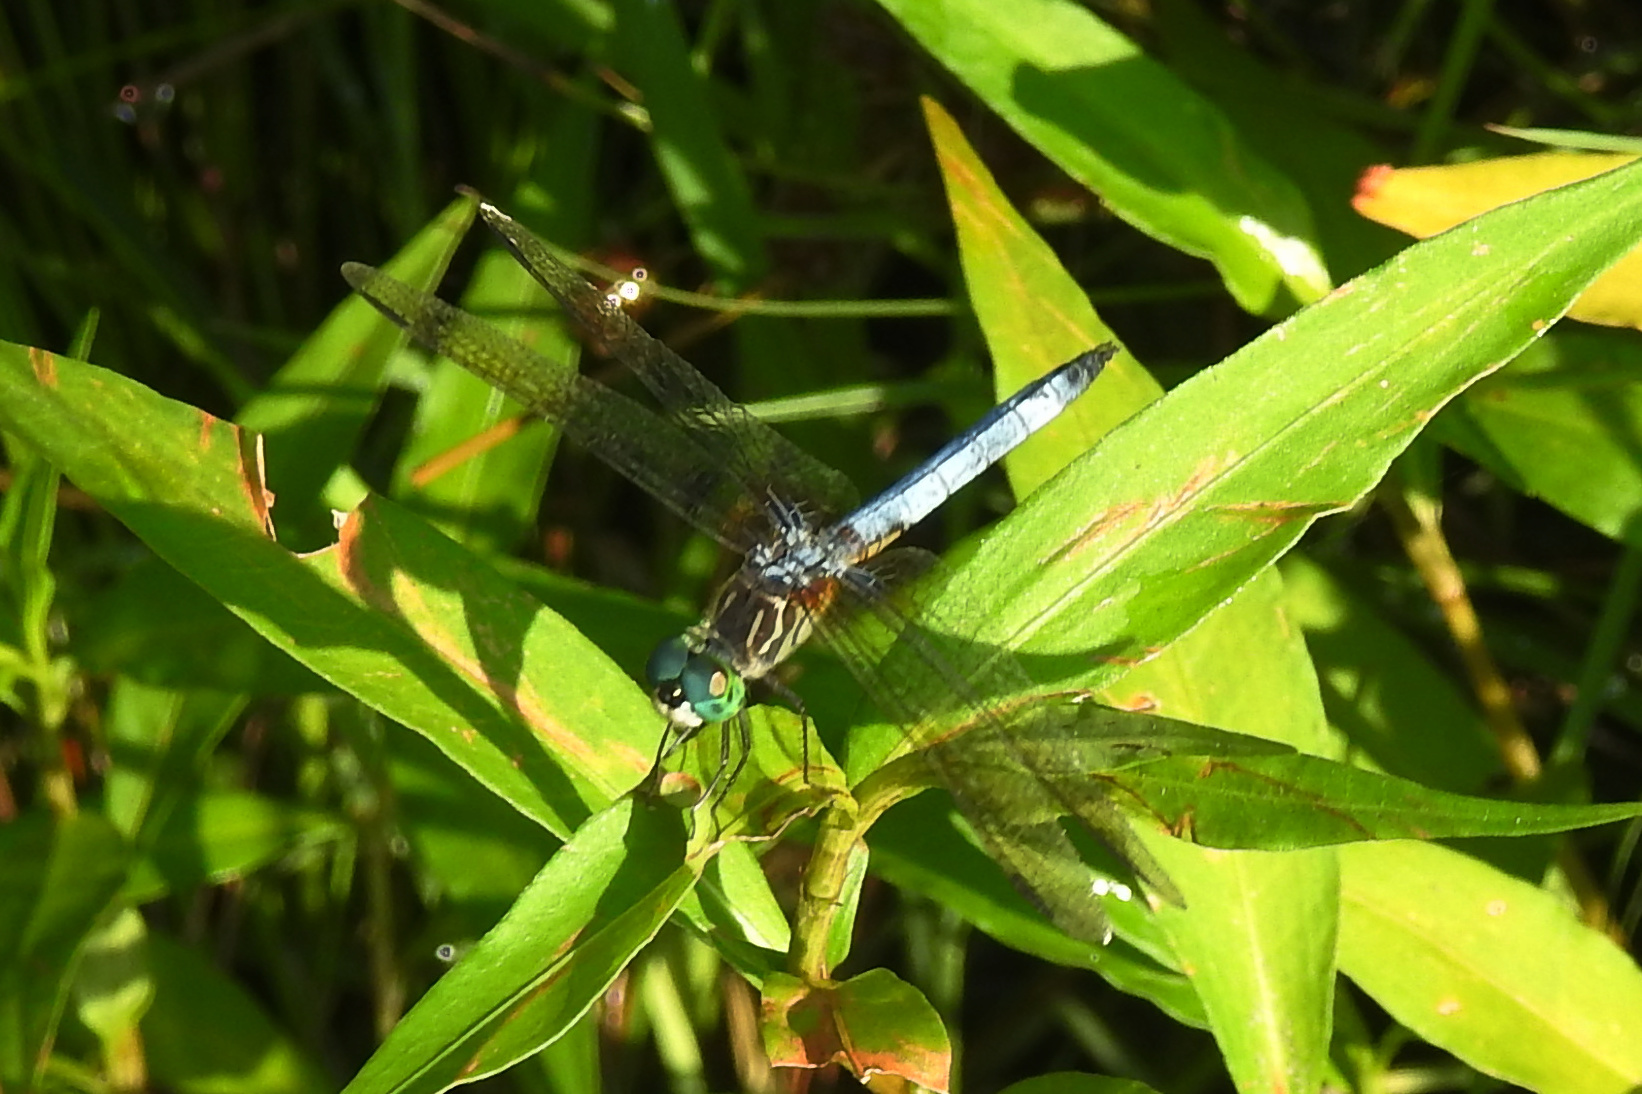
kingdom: Animalia
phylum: Arthropoda
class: Insecta
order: Odonata
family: Libellulidae
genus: Pachydiplax
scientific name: Pachydiplax longipennis
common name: Blue dasher
